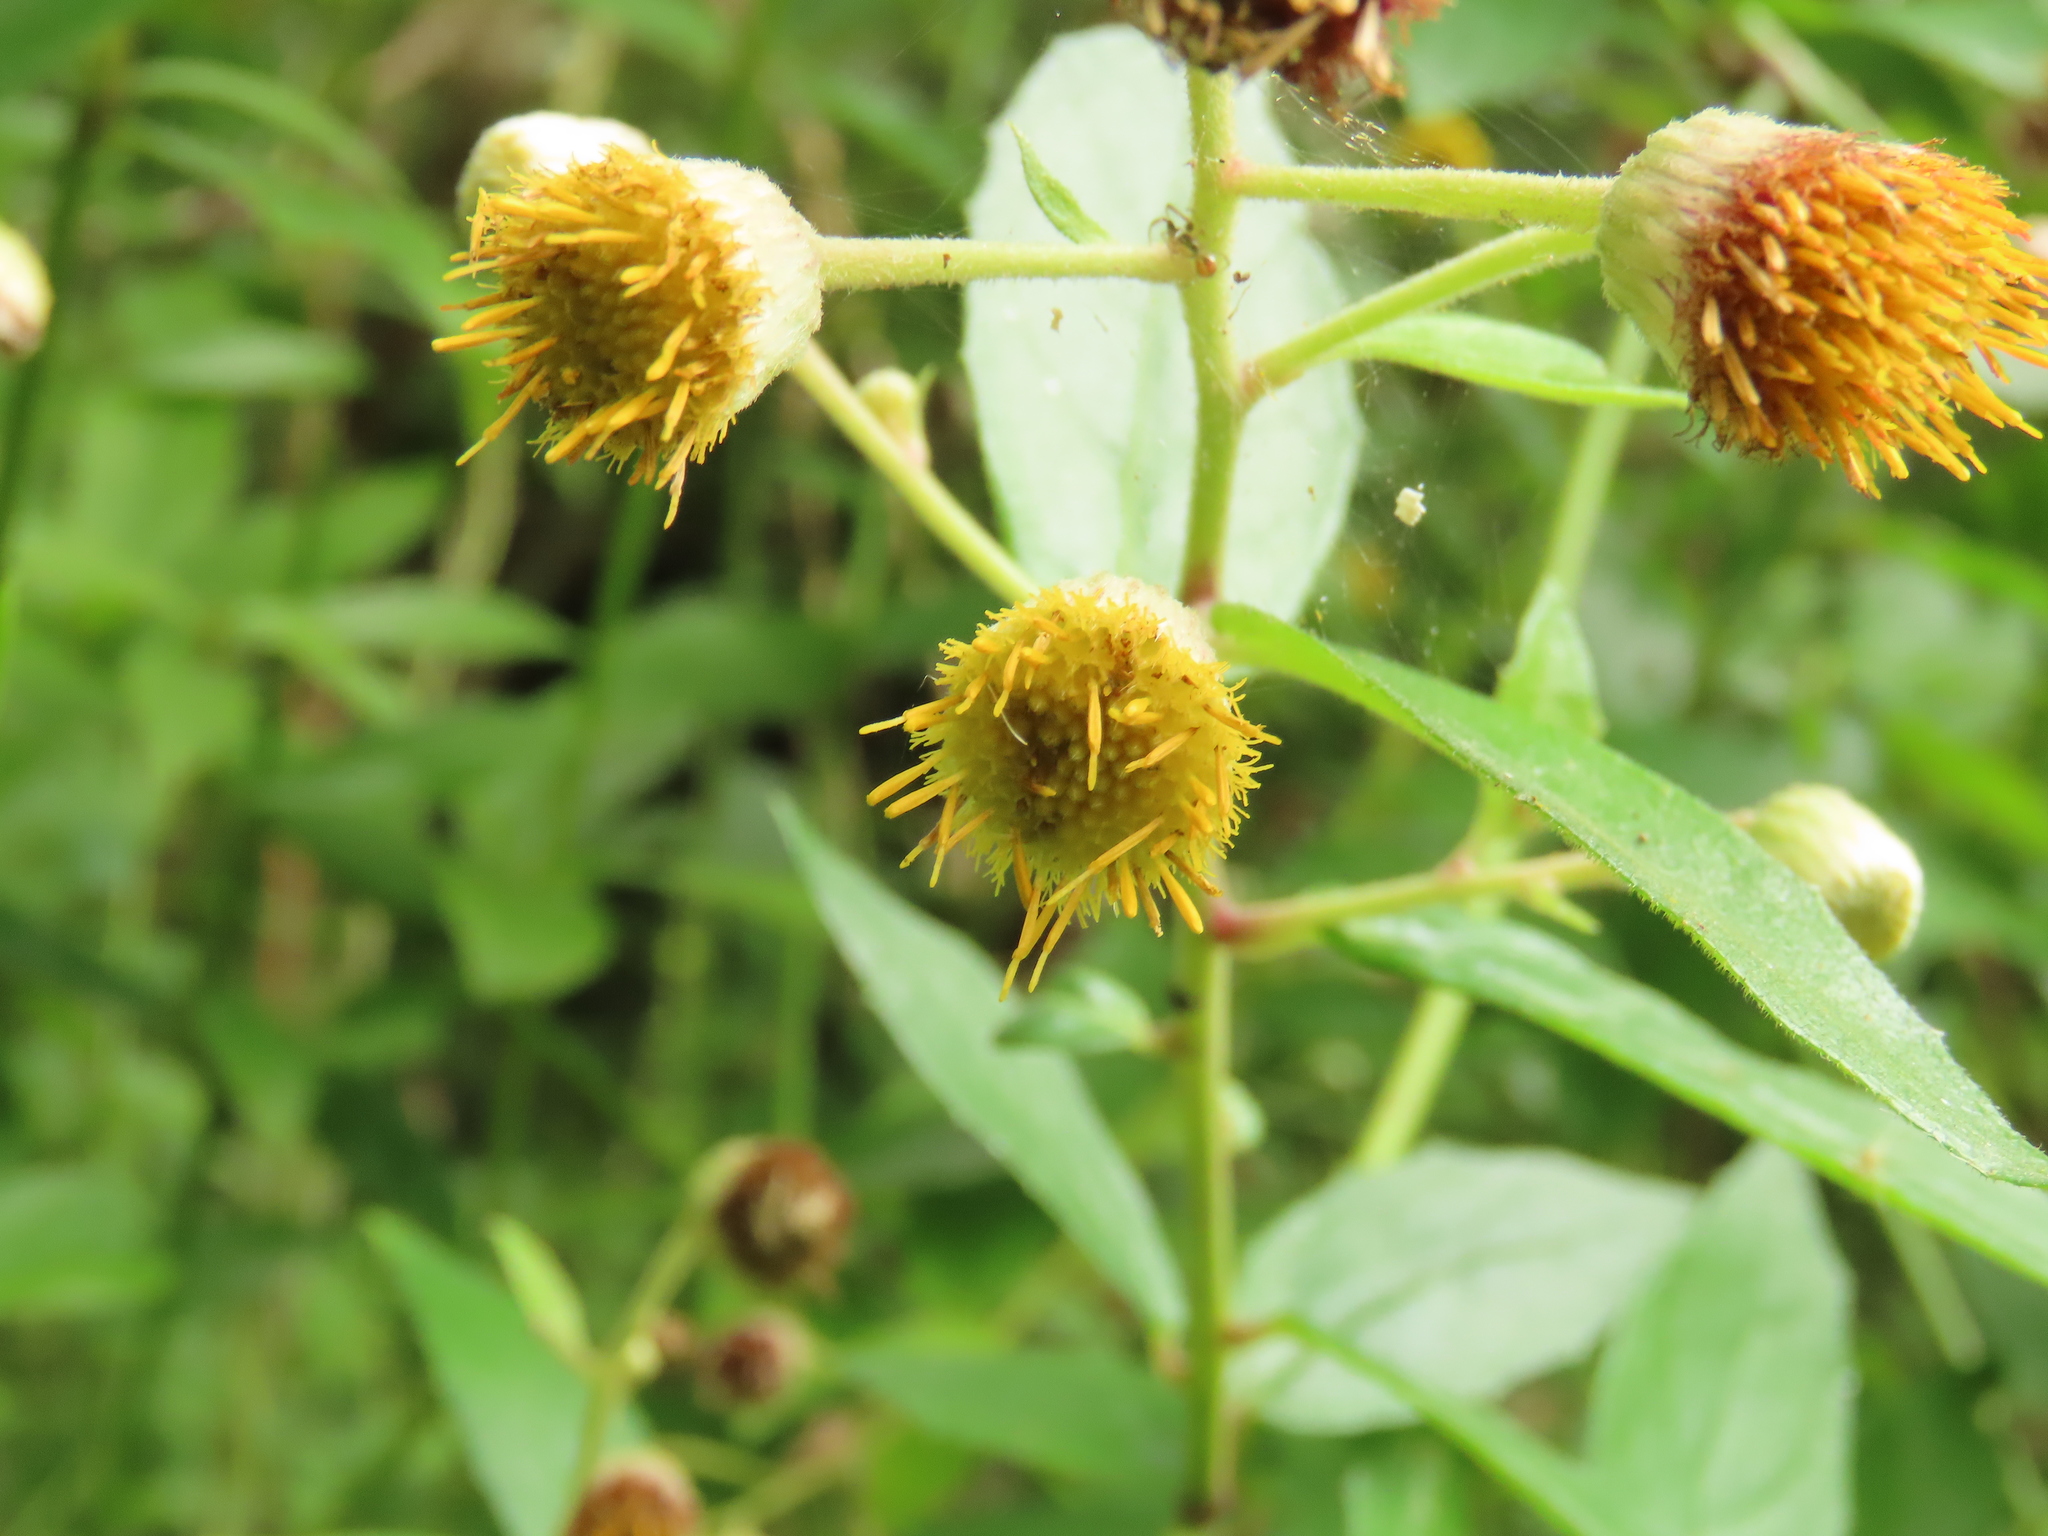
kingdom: Plantae
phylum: Tracheophyta
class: Magnoliopsida
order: Asterales
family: Asteraceae
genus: Blumea
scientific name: Blumea megacephala
